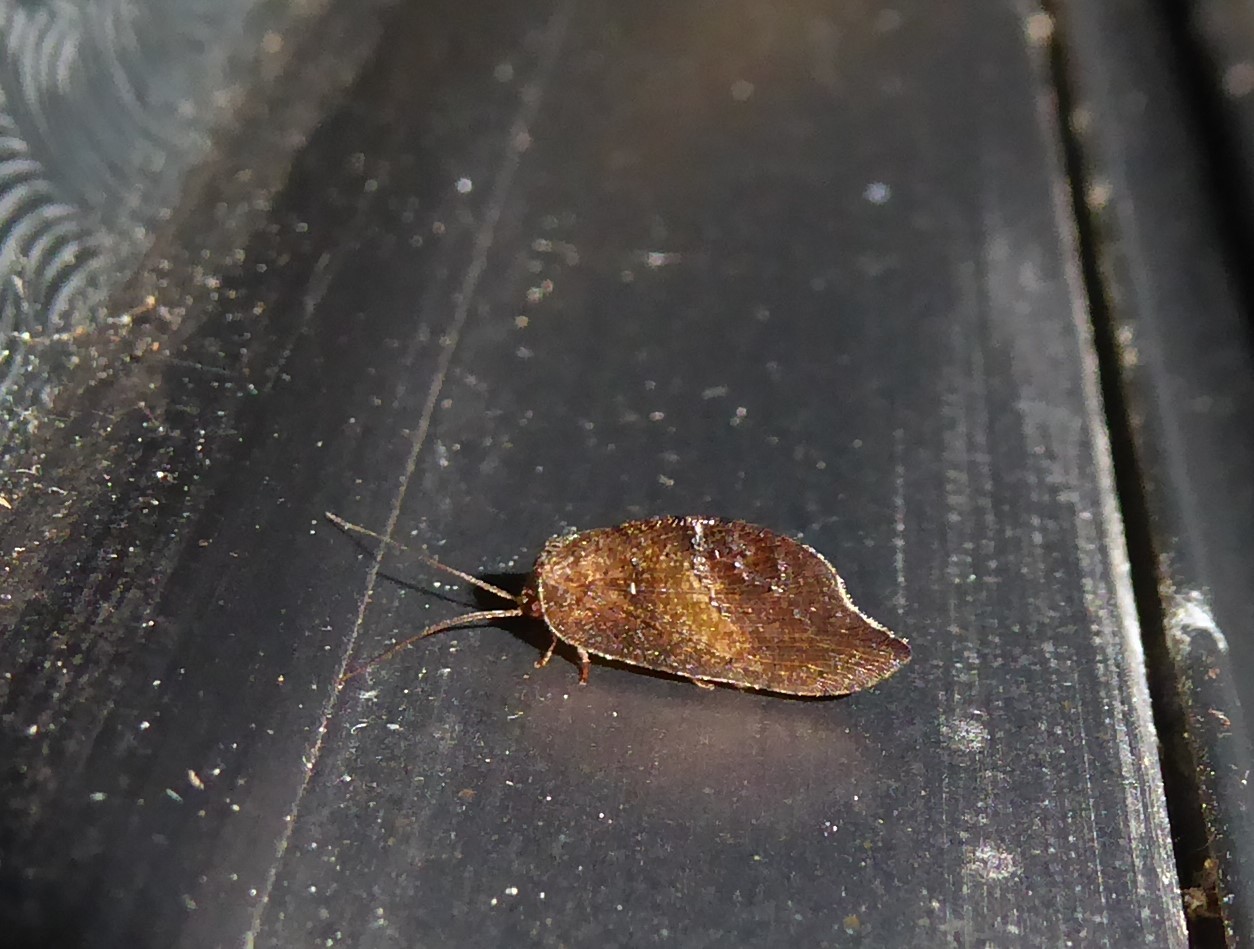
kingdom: Animalia
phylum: Arthropoda
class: Insecta
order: Neuroptera
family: Hemerobiidae
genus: Drepanacra
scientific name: Drepanacra binocula
